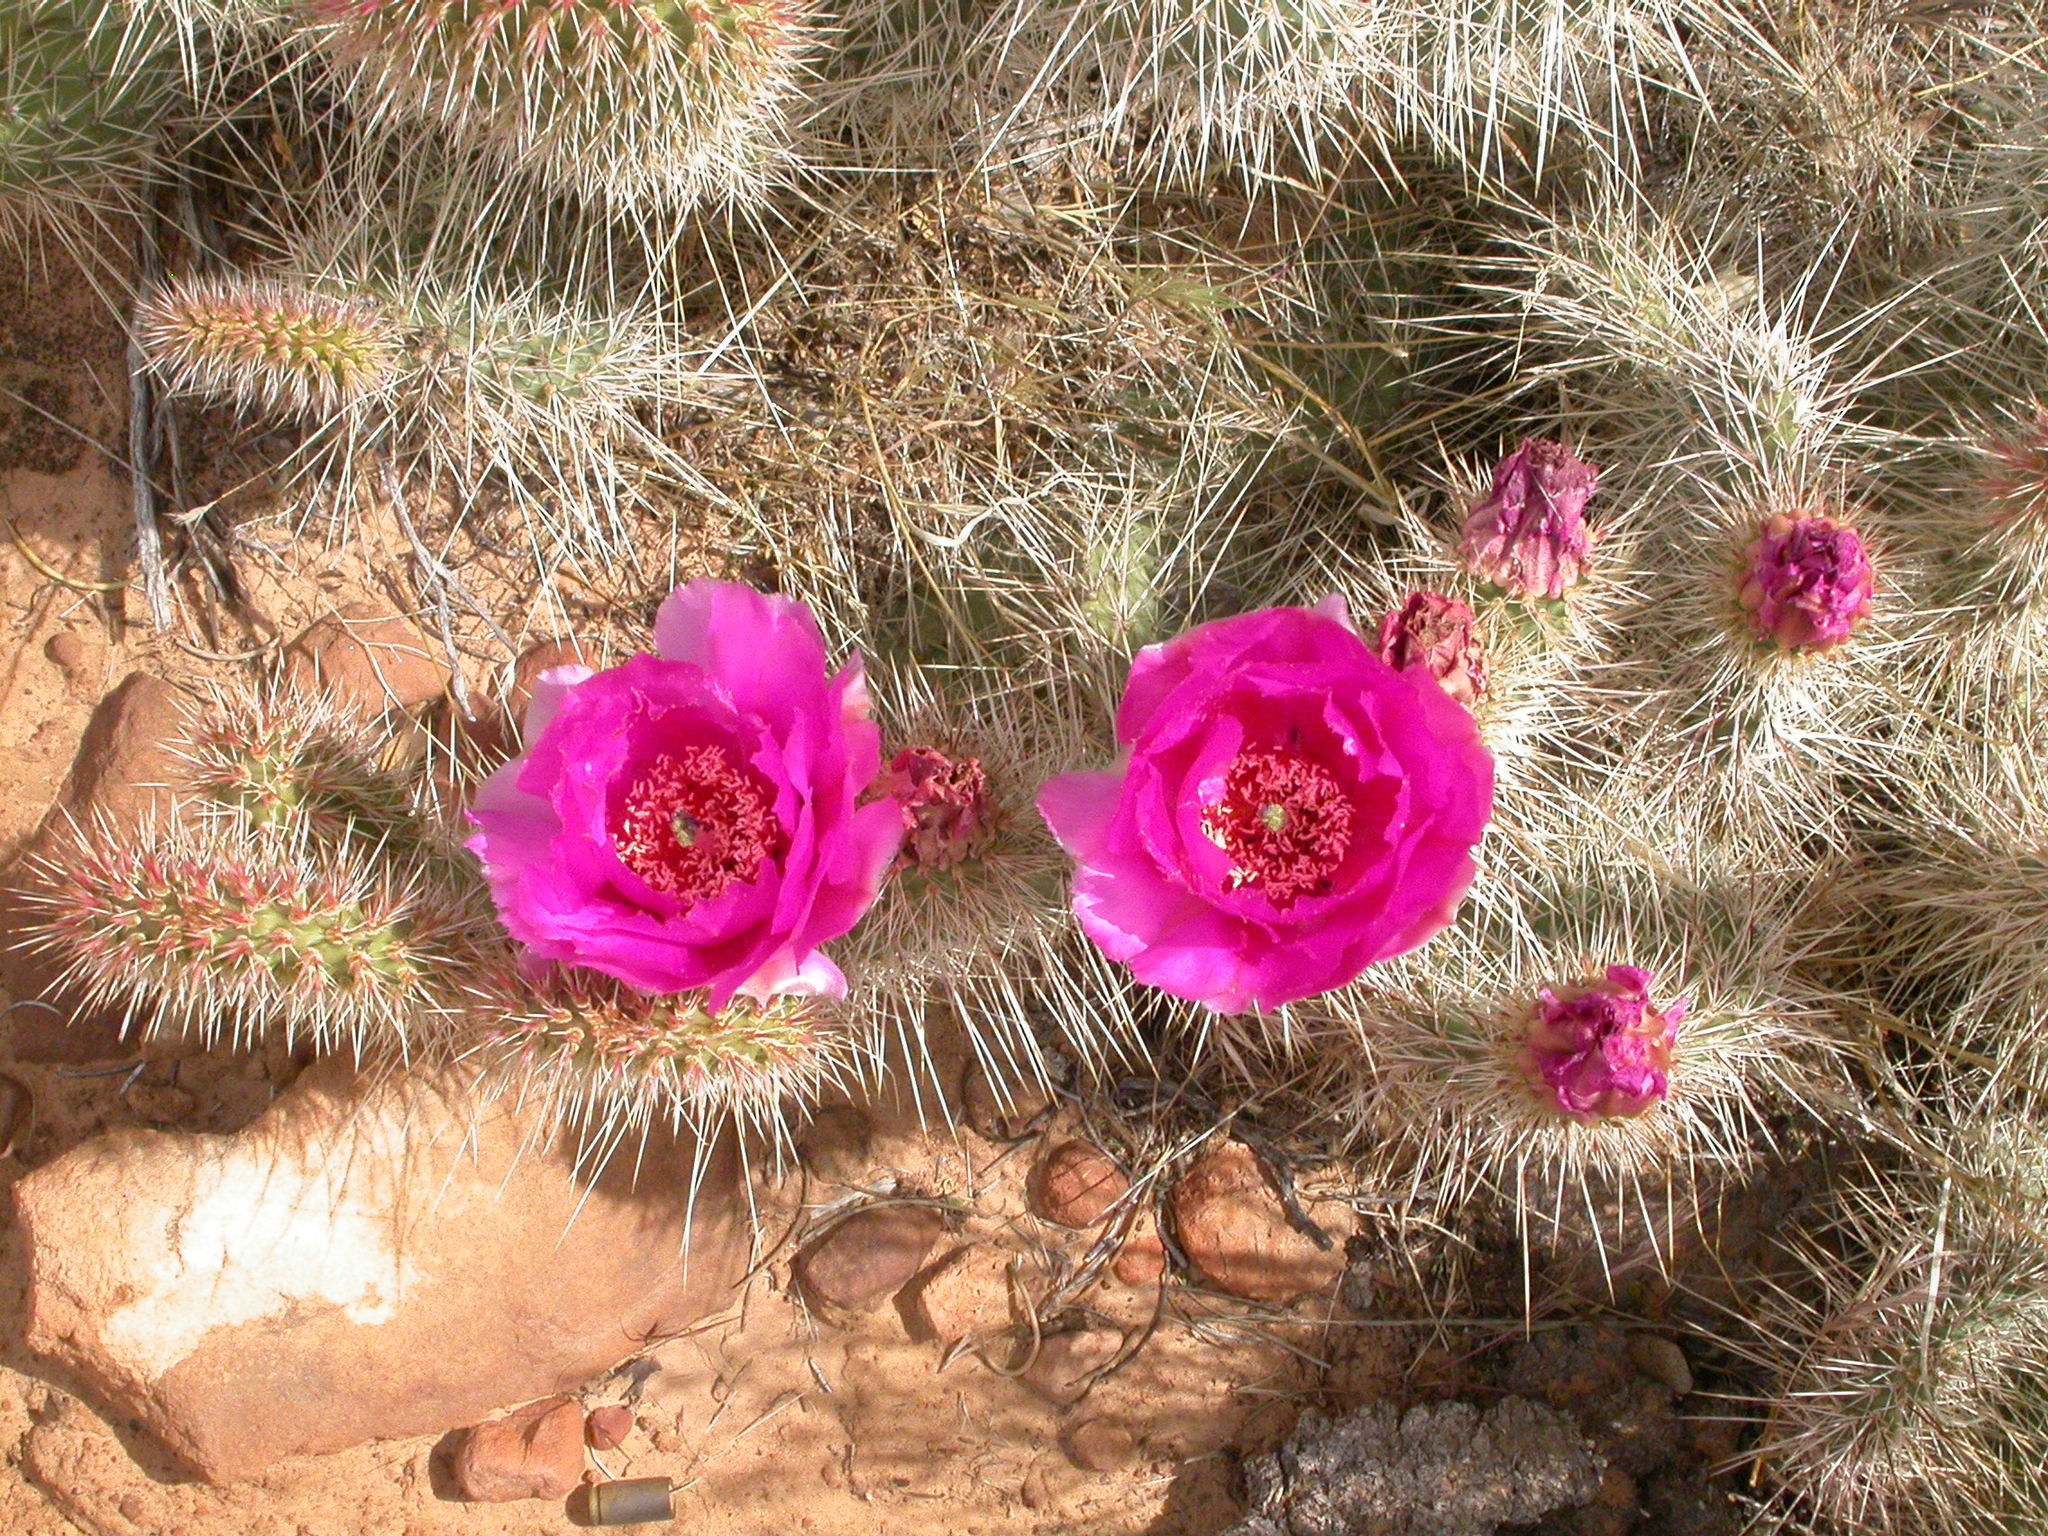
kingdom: Plantae
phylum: Tracheophyta
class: Magnoliopsida
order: Caryophyllales
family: Cactaceae
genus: Opuntia
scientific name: Opuntia polyacantha
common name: Plains prickly-pear
